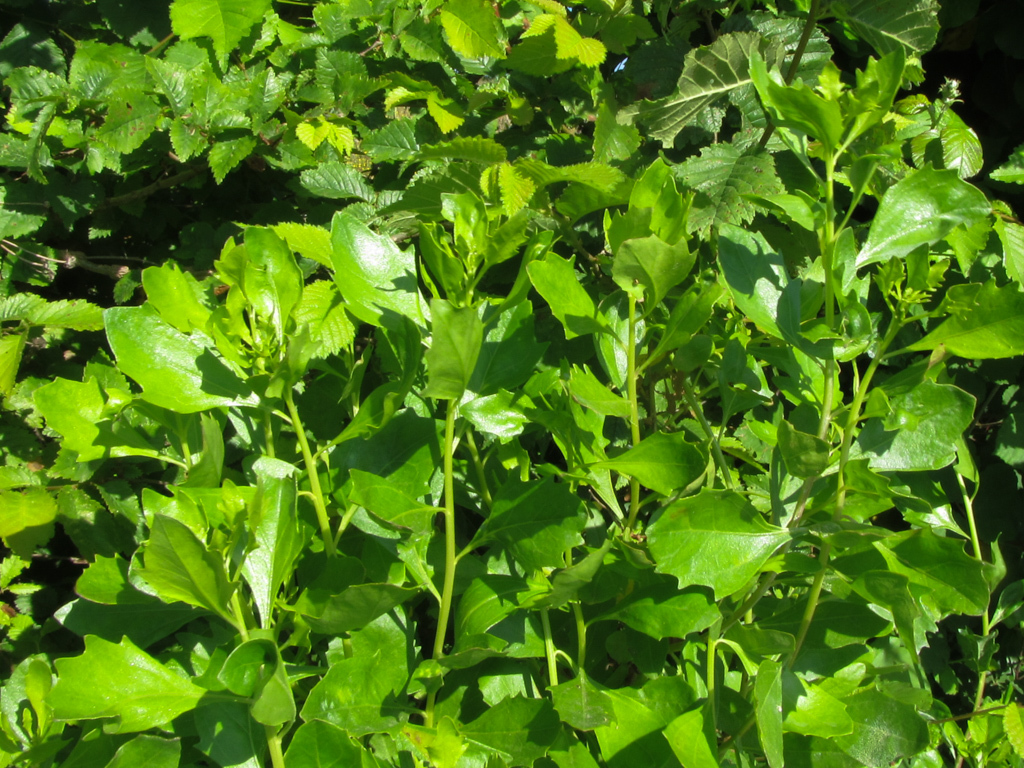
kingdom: Plantae
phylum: Tracheophyta
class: Magnoliopsida
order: Asterales
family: Asteraceae
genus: Baccharis
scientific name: Baccharis halimifolia
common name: Eastern baccharis
